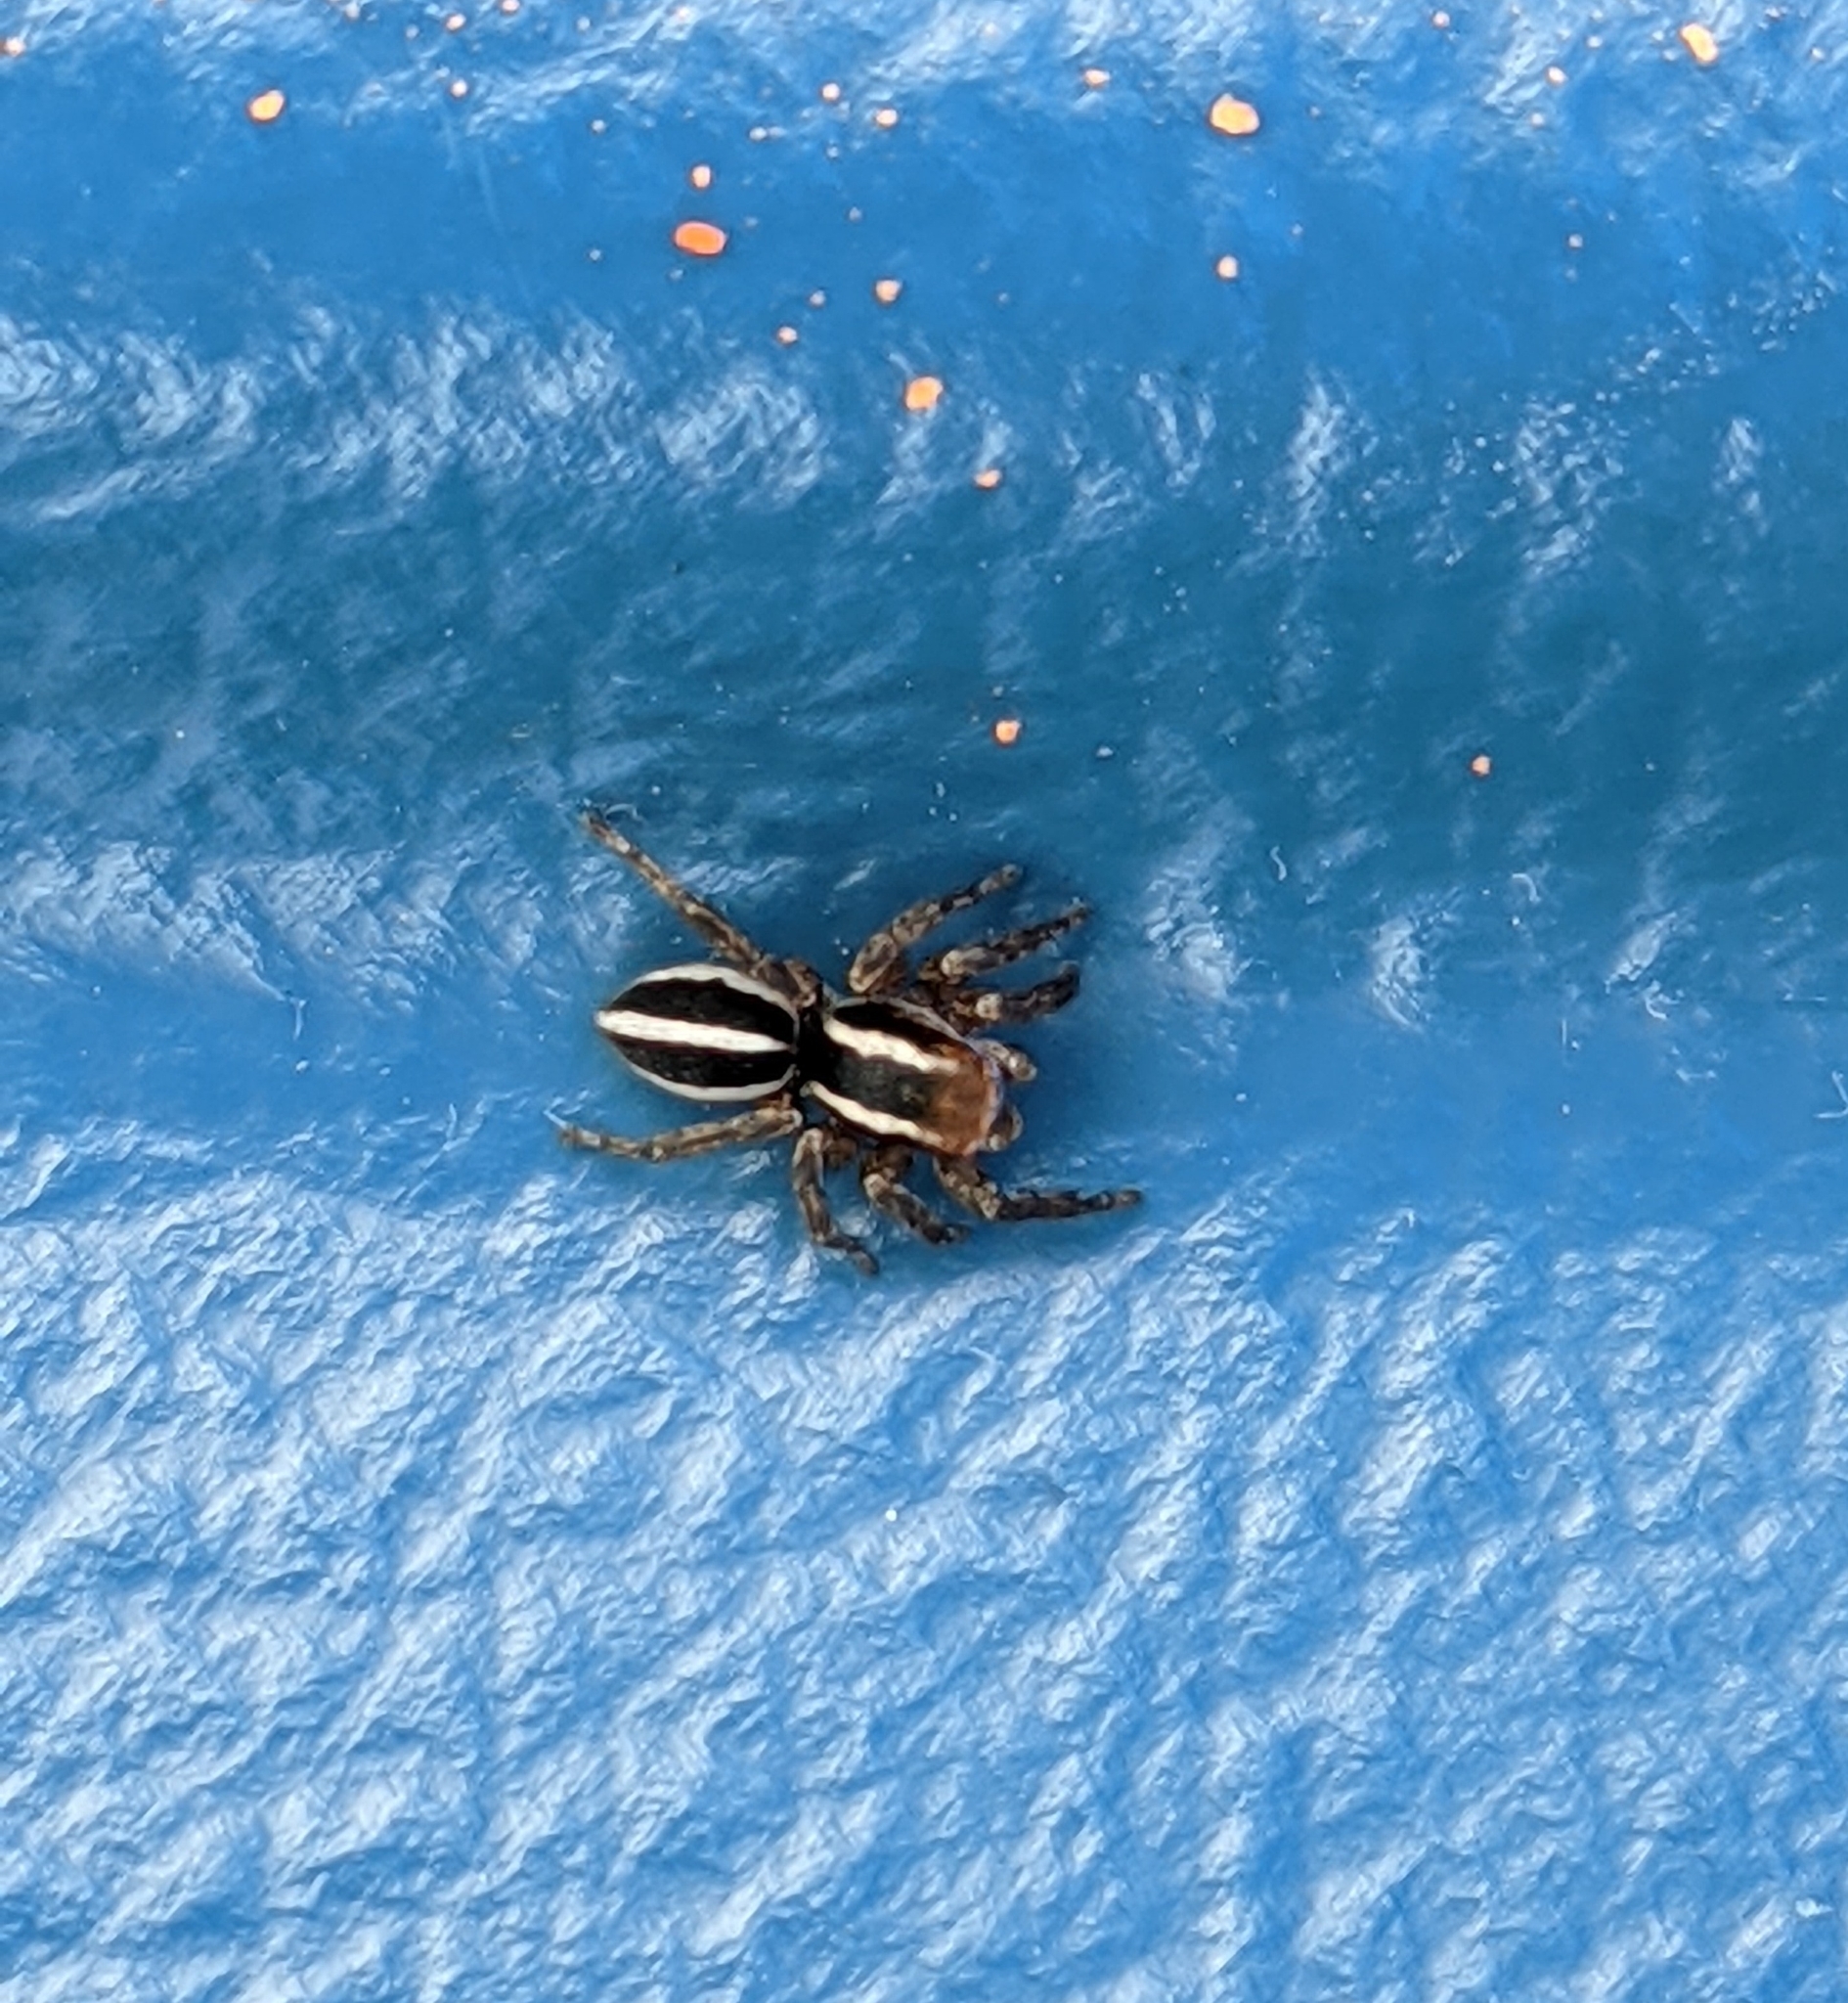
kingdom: Animalia
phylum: Arthropoda
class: Arachnida
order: Araneae
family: Salticidae
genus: Phlegra
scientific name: Phlegra hentzi
